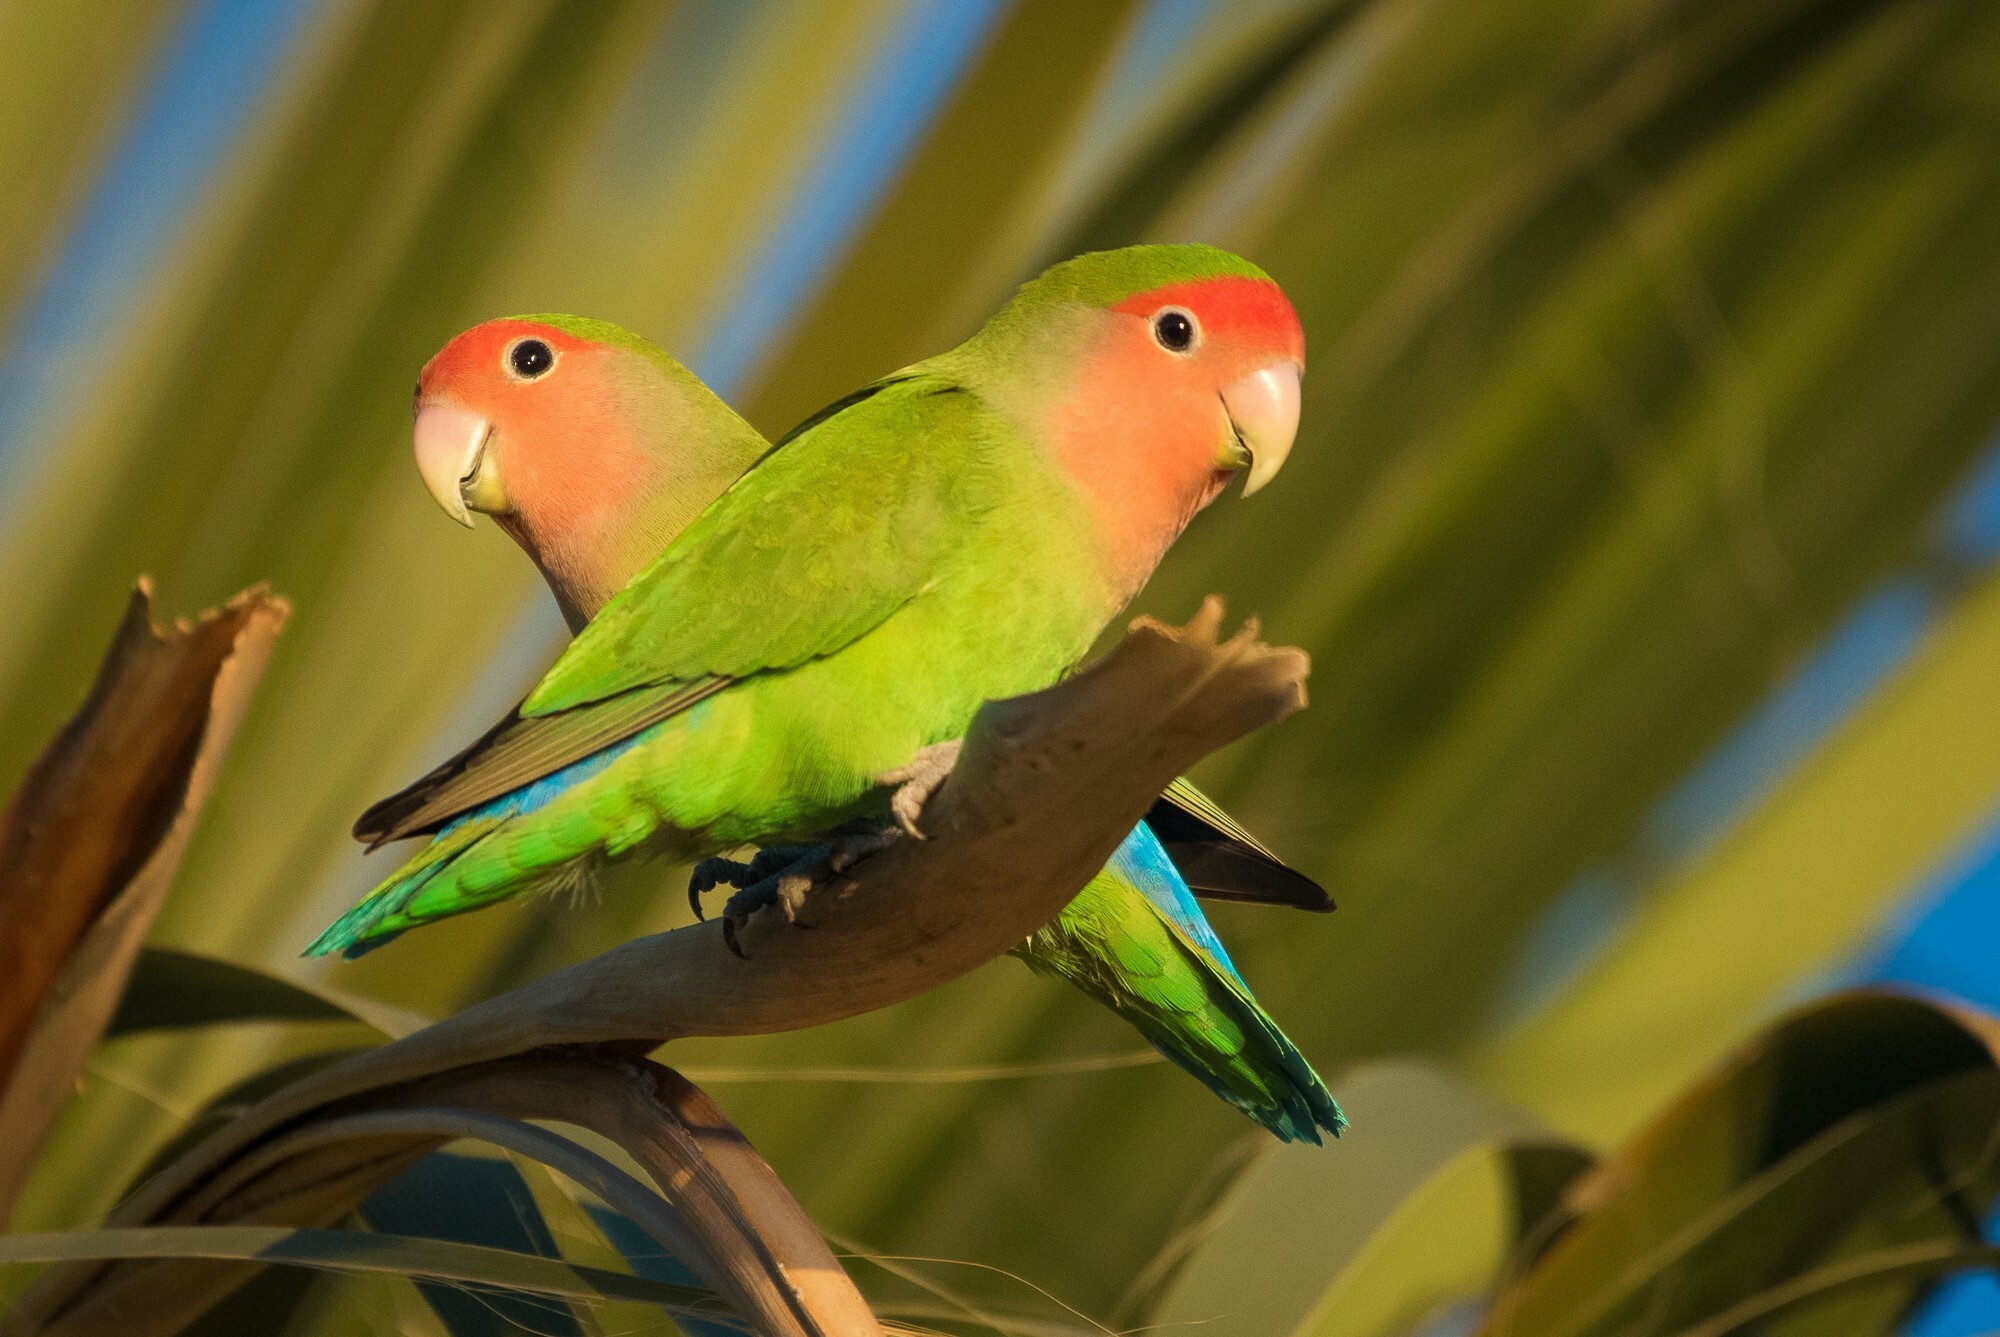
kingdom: Animalia
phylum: Chordata
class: Aves
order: Psittaciformes
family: Psittacidae
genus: Agapornis
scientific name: Agapornis roseicollis
